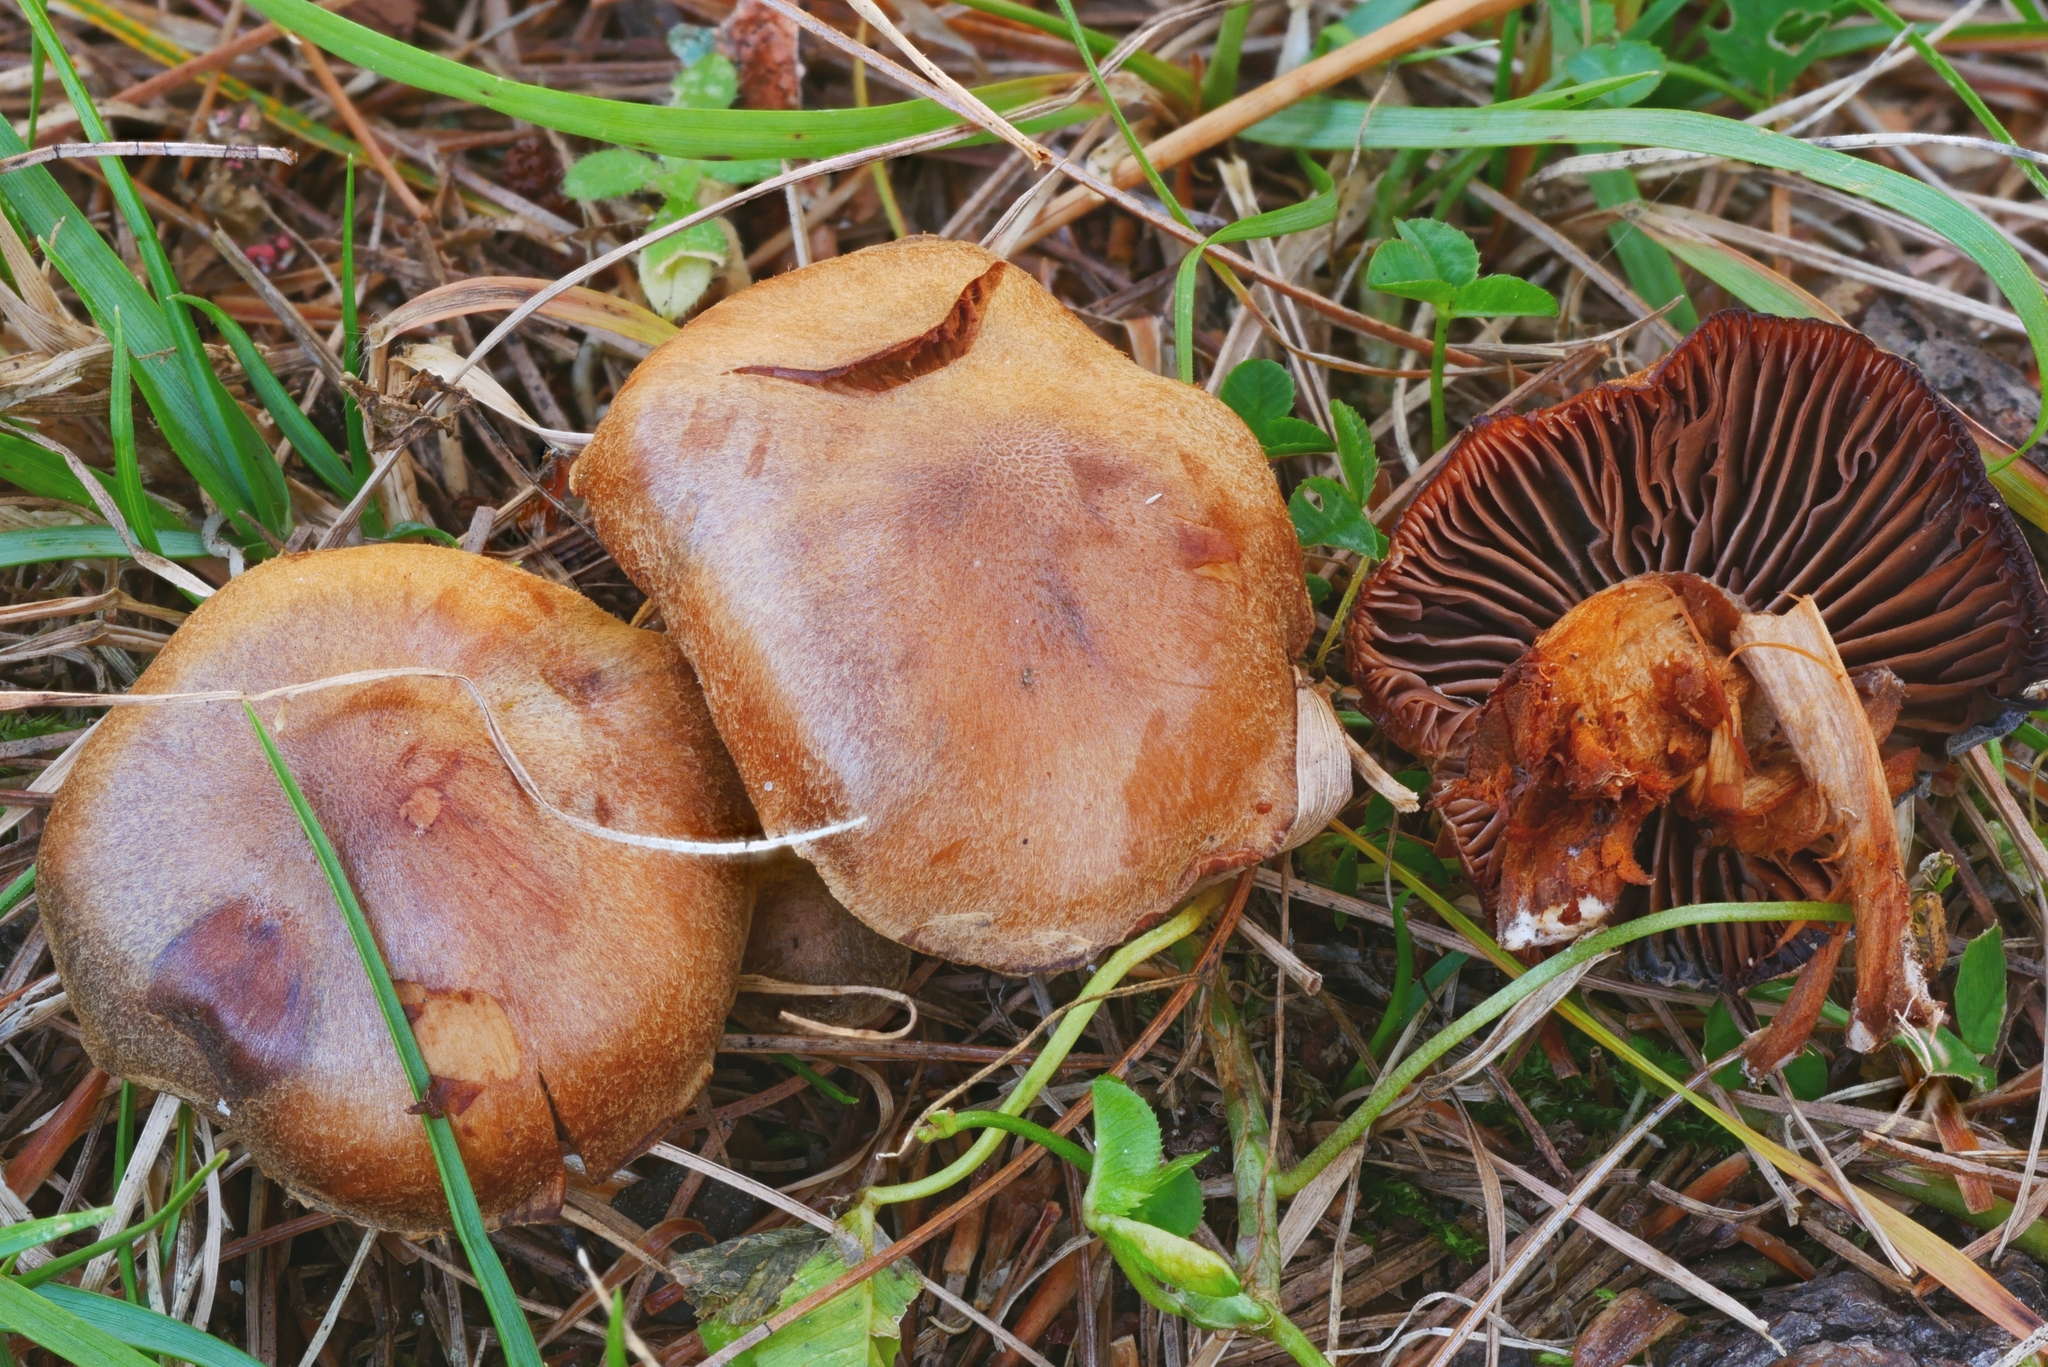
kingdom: Fungi
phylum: Basidiomycota
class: Agaricomycetes
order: Agaricales
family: Cortinariaceae
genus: Cortinarius
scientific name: Cortinarius fusisporus
